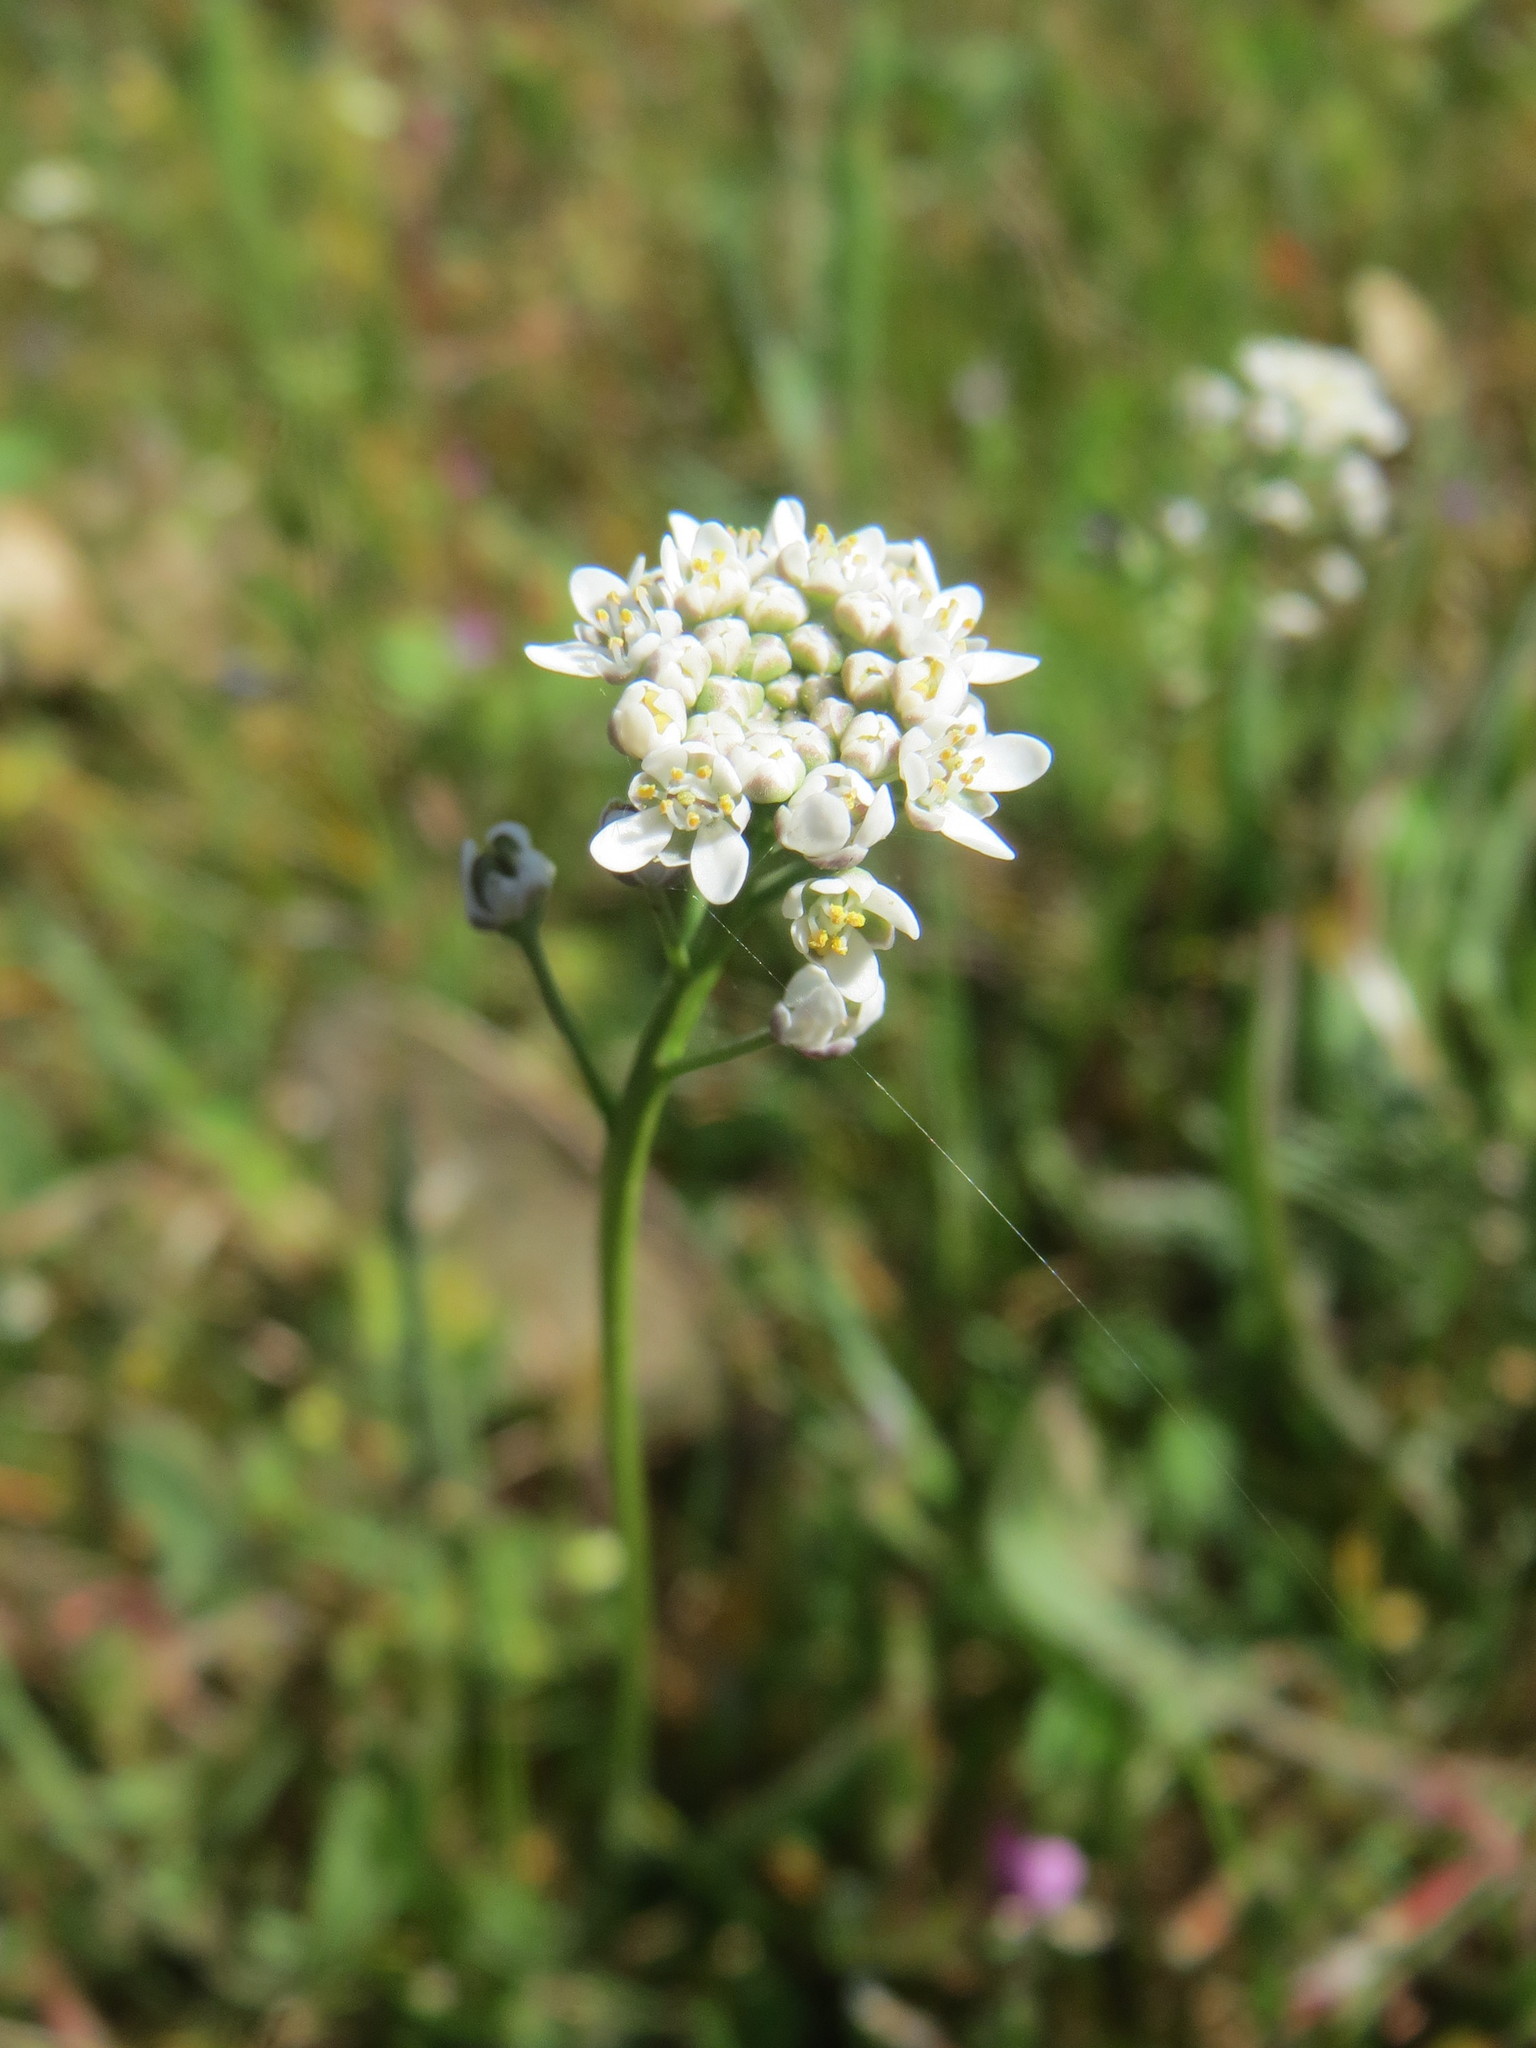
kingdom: Plantae
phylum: Tracheophyta
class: Magnoliopsida
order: Brassicales
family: Brassicaceae
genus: Teesdalia
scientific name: Teesdalia nudicaulis
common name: Shepherd's cress
